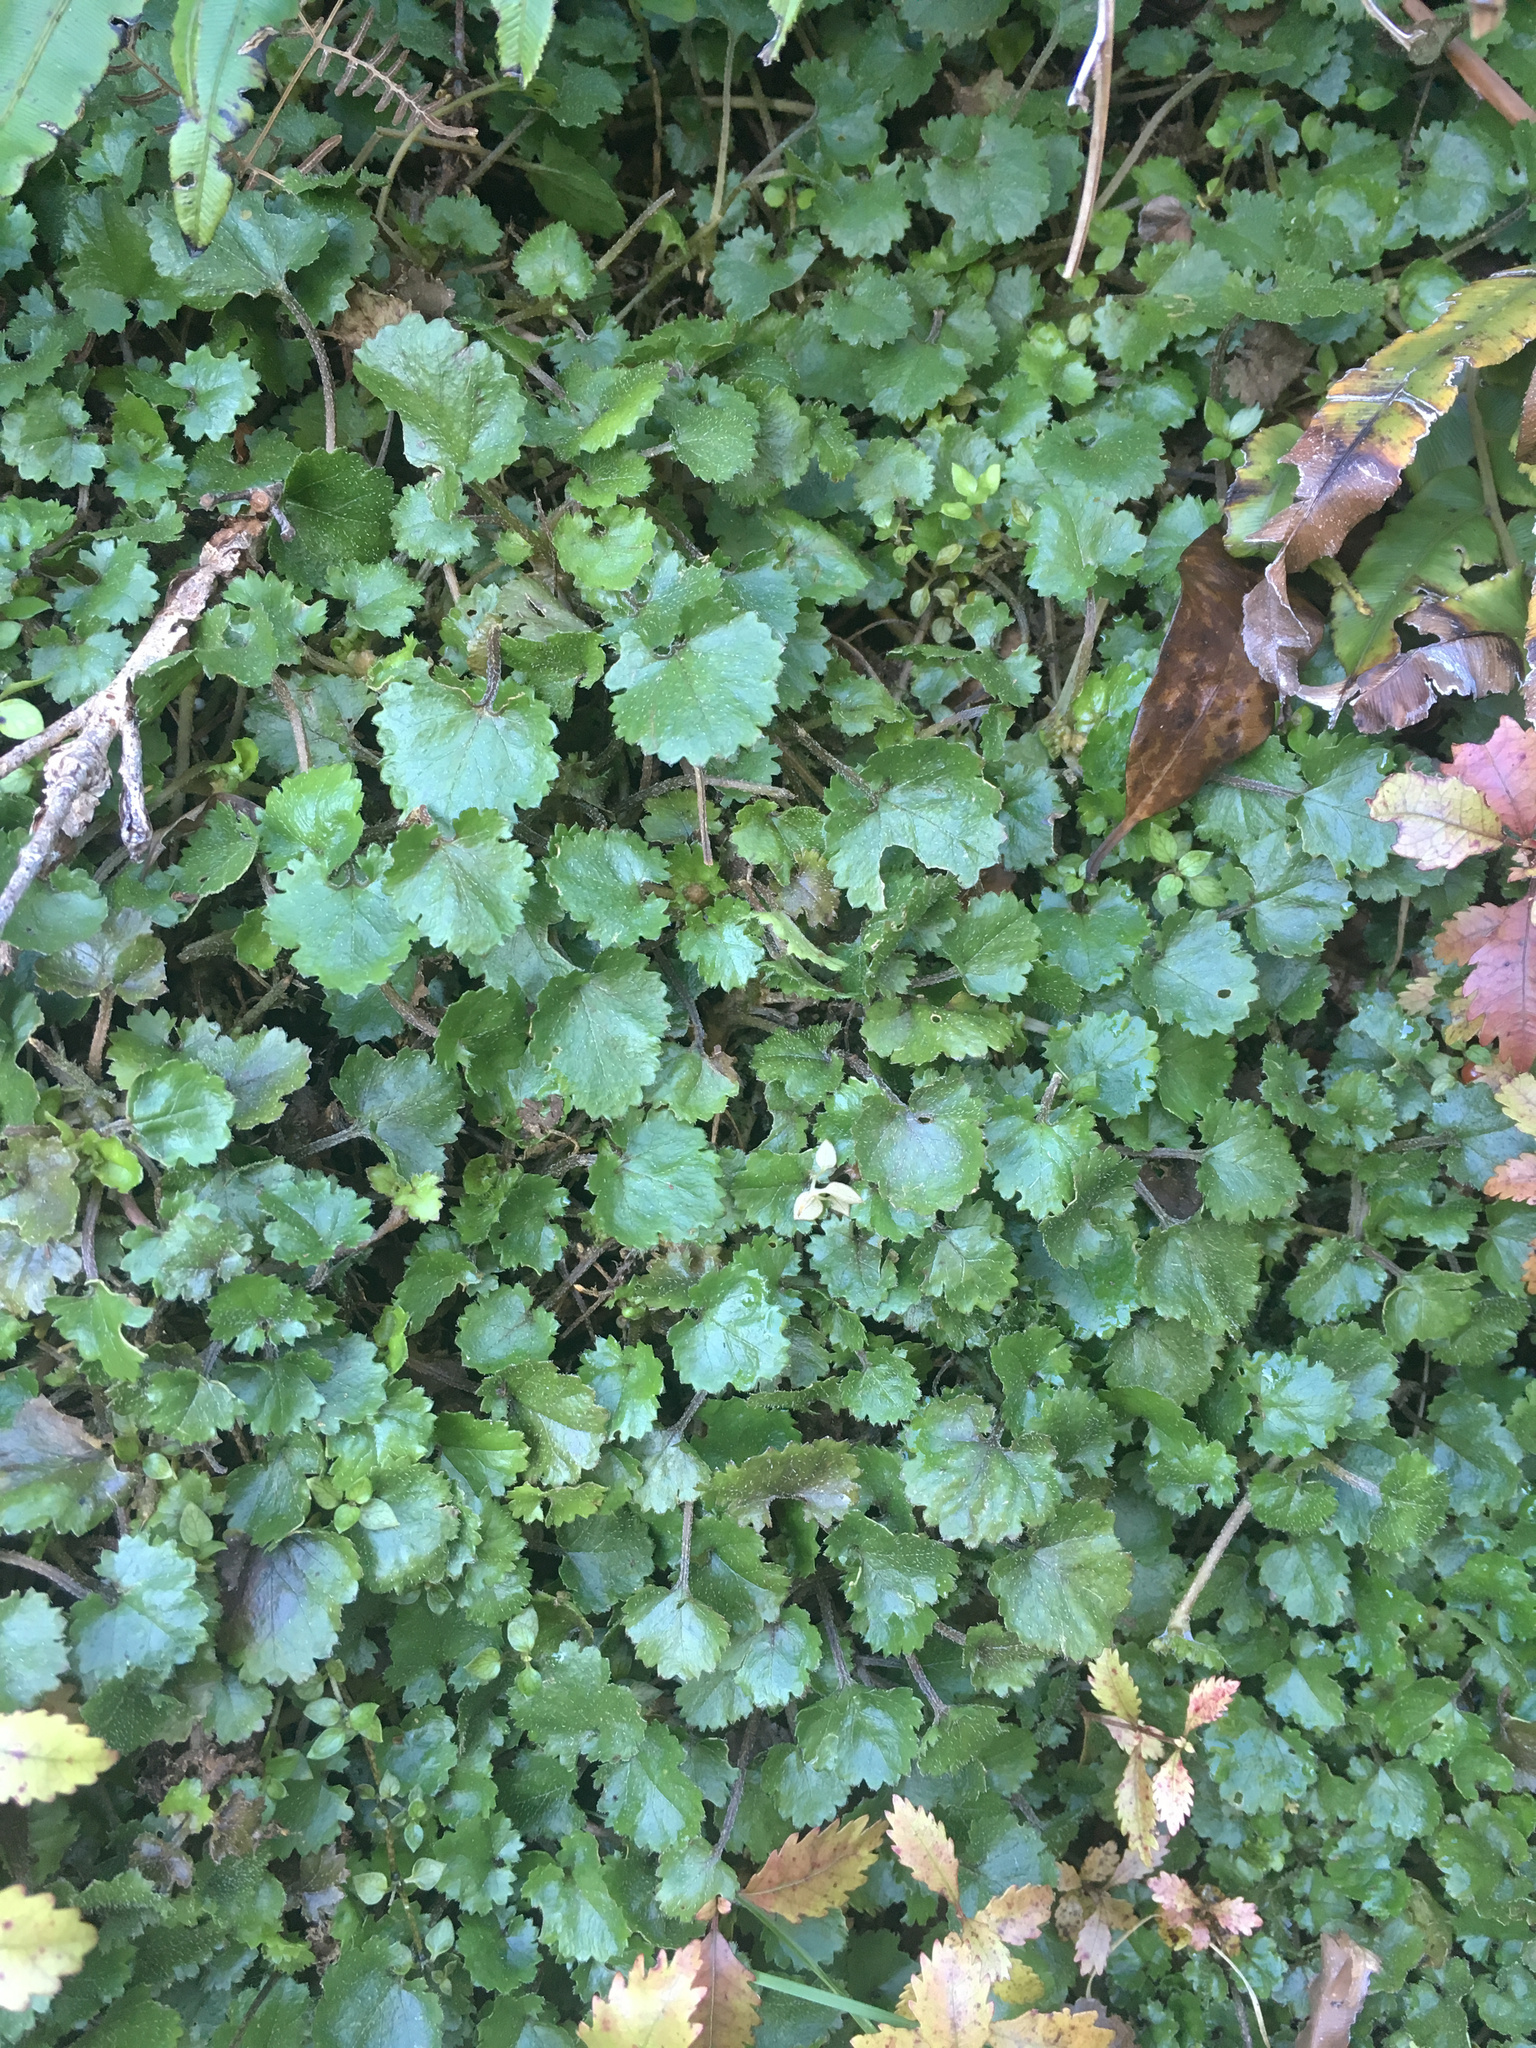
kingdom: Plantae
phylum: Tracheophyta
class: Magnoliopsida
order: Gunnerales
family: Gunneraceae
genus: Gunnera
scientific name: Gunnera monoica
